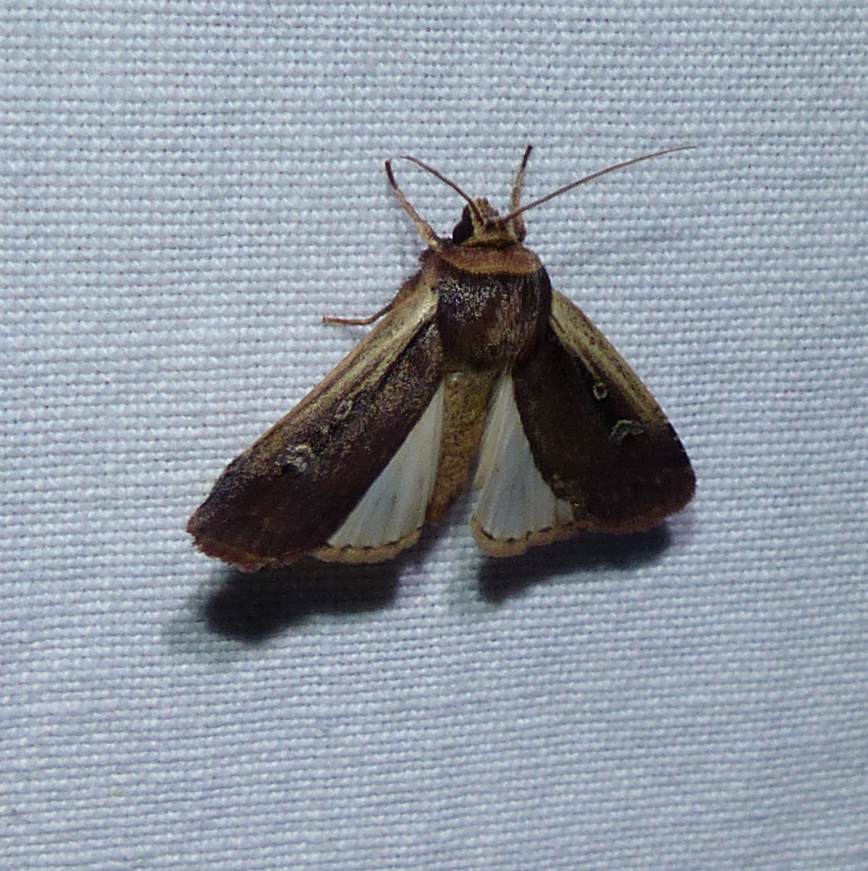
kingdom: Animalia
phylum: Arthropoda
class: Insecta
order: Lepidoptera
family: Noctuidae
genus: Ochropleura
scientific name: Ochropleura implecta
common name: Flame-shouldered dart
